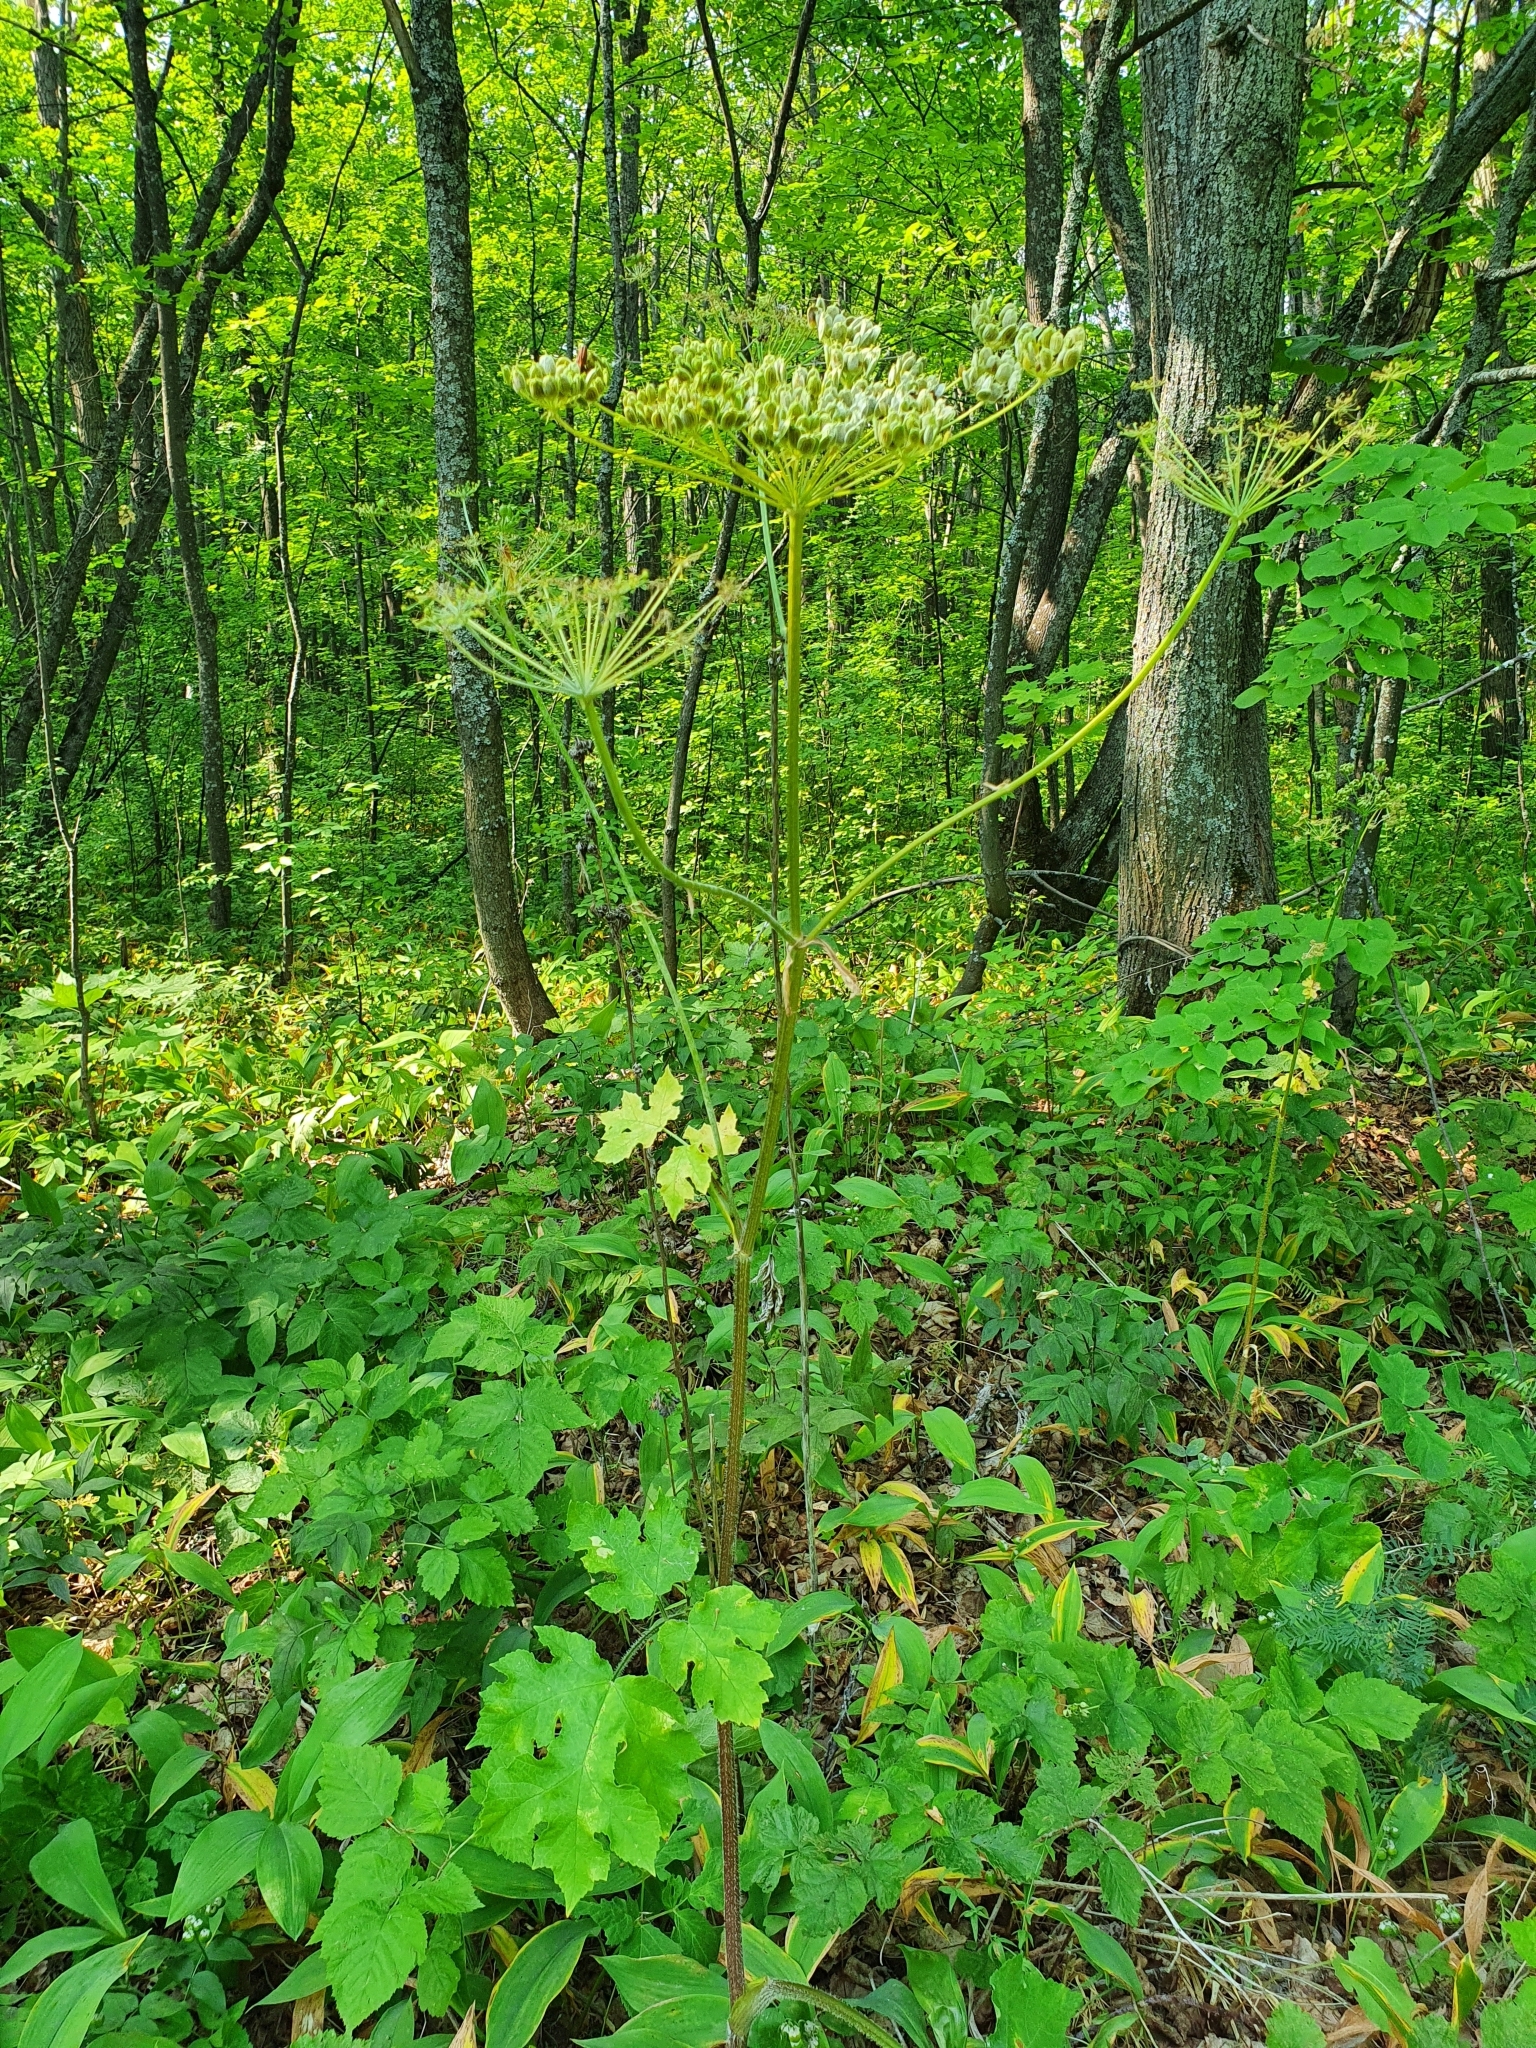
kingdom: Plantae
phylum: Tracheophyta
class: Magnoliopsida
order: Apiales
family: Apiaceae
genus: Heracleum
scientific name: Heracleum sphondylium
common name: Hogweed
